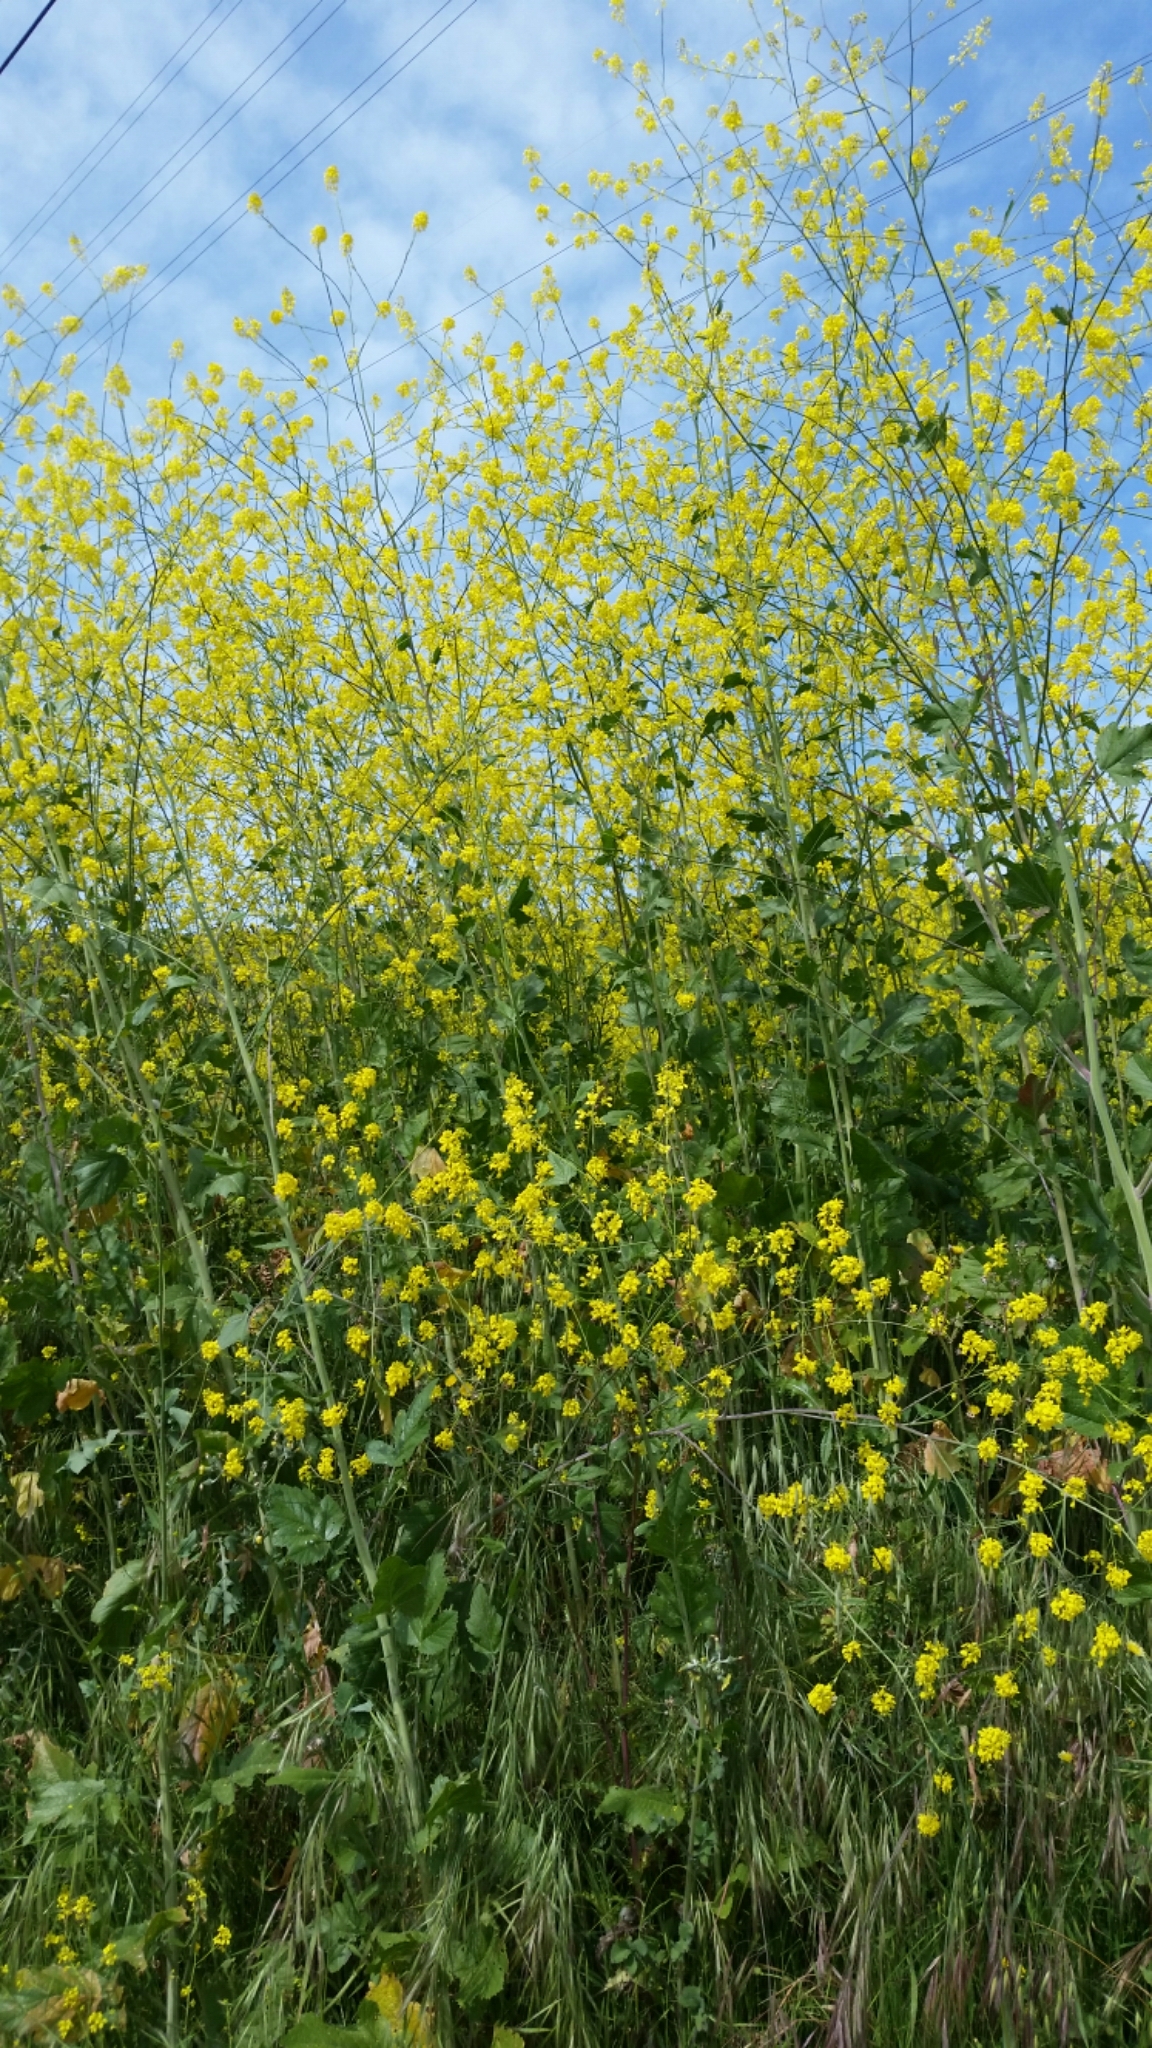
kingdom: Plantae
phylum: Tracheophyta
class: Magnoliopsida
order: Brassicales
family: Brassicaceae
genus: Brassica
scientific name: Brassica nigra
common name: Black mustard
